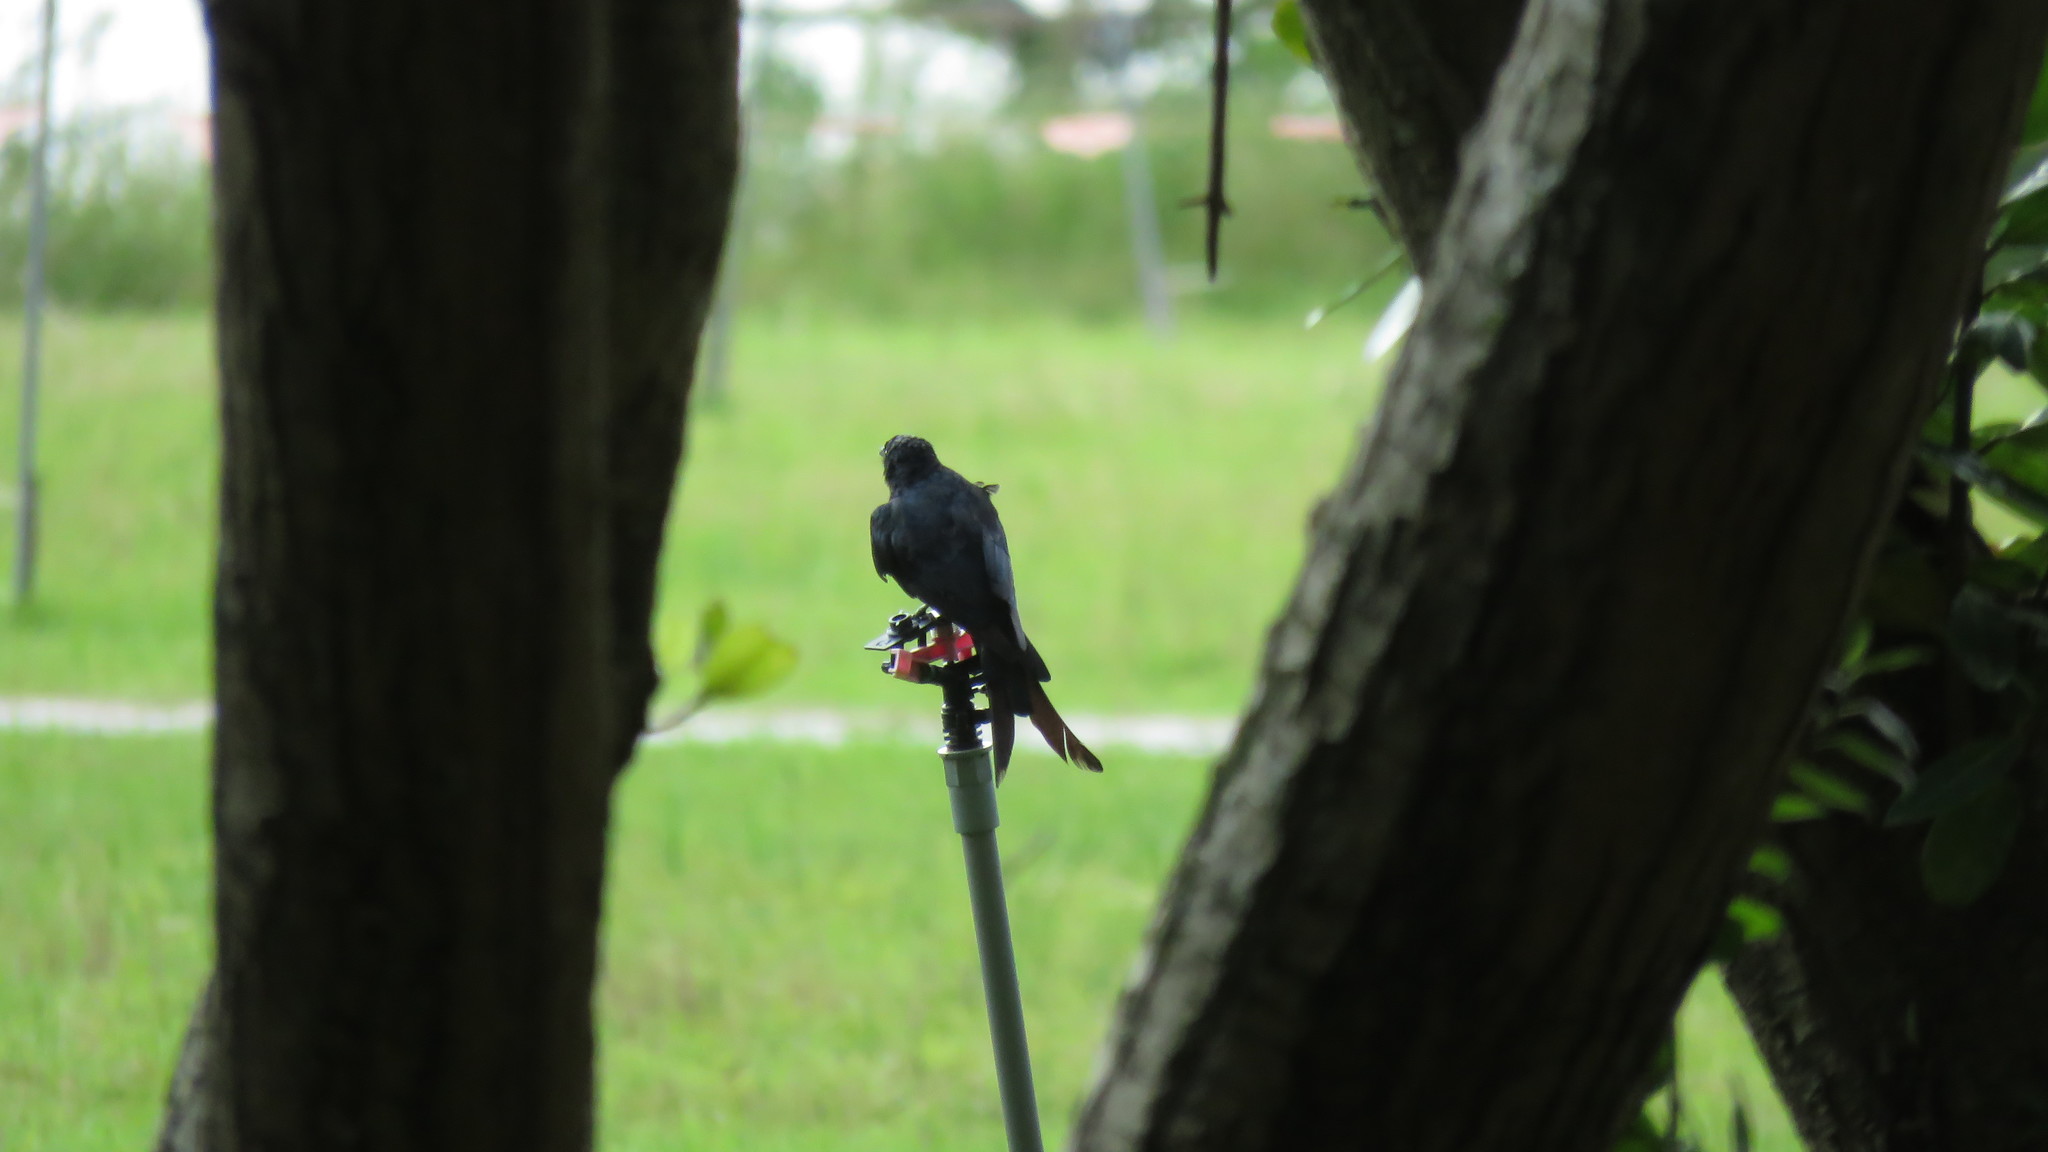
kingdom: Animalia
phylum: Chordata
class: Aves
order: Passeriformes
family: Dicruridae
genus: Dicrurus
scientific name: Dicrurus macrocercus
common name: Black drongo
